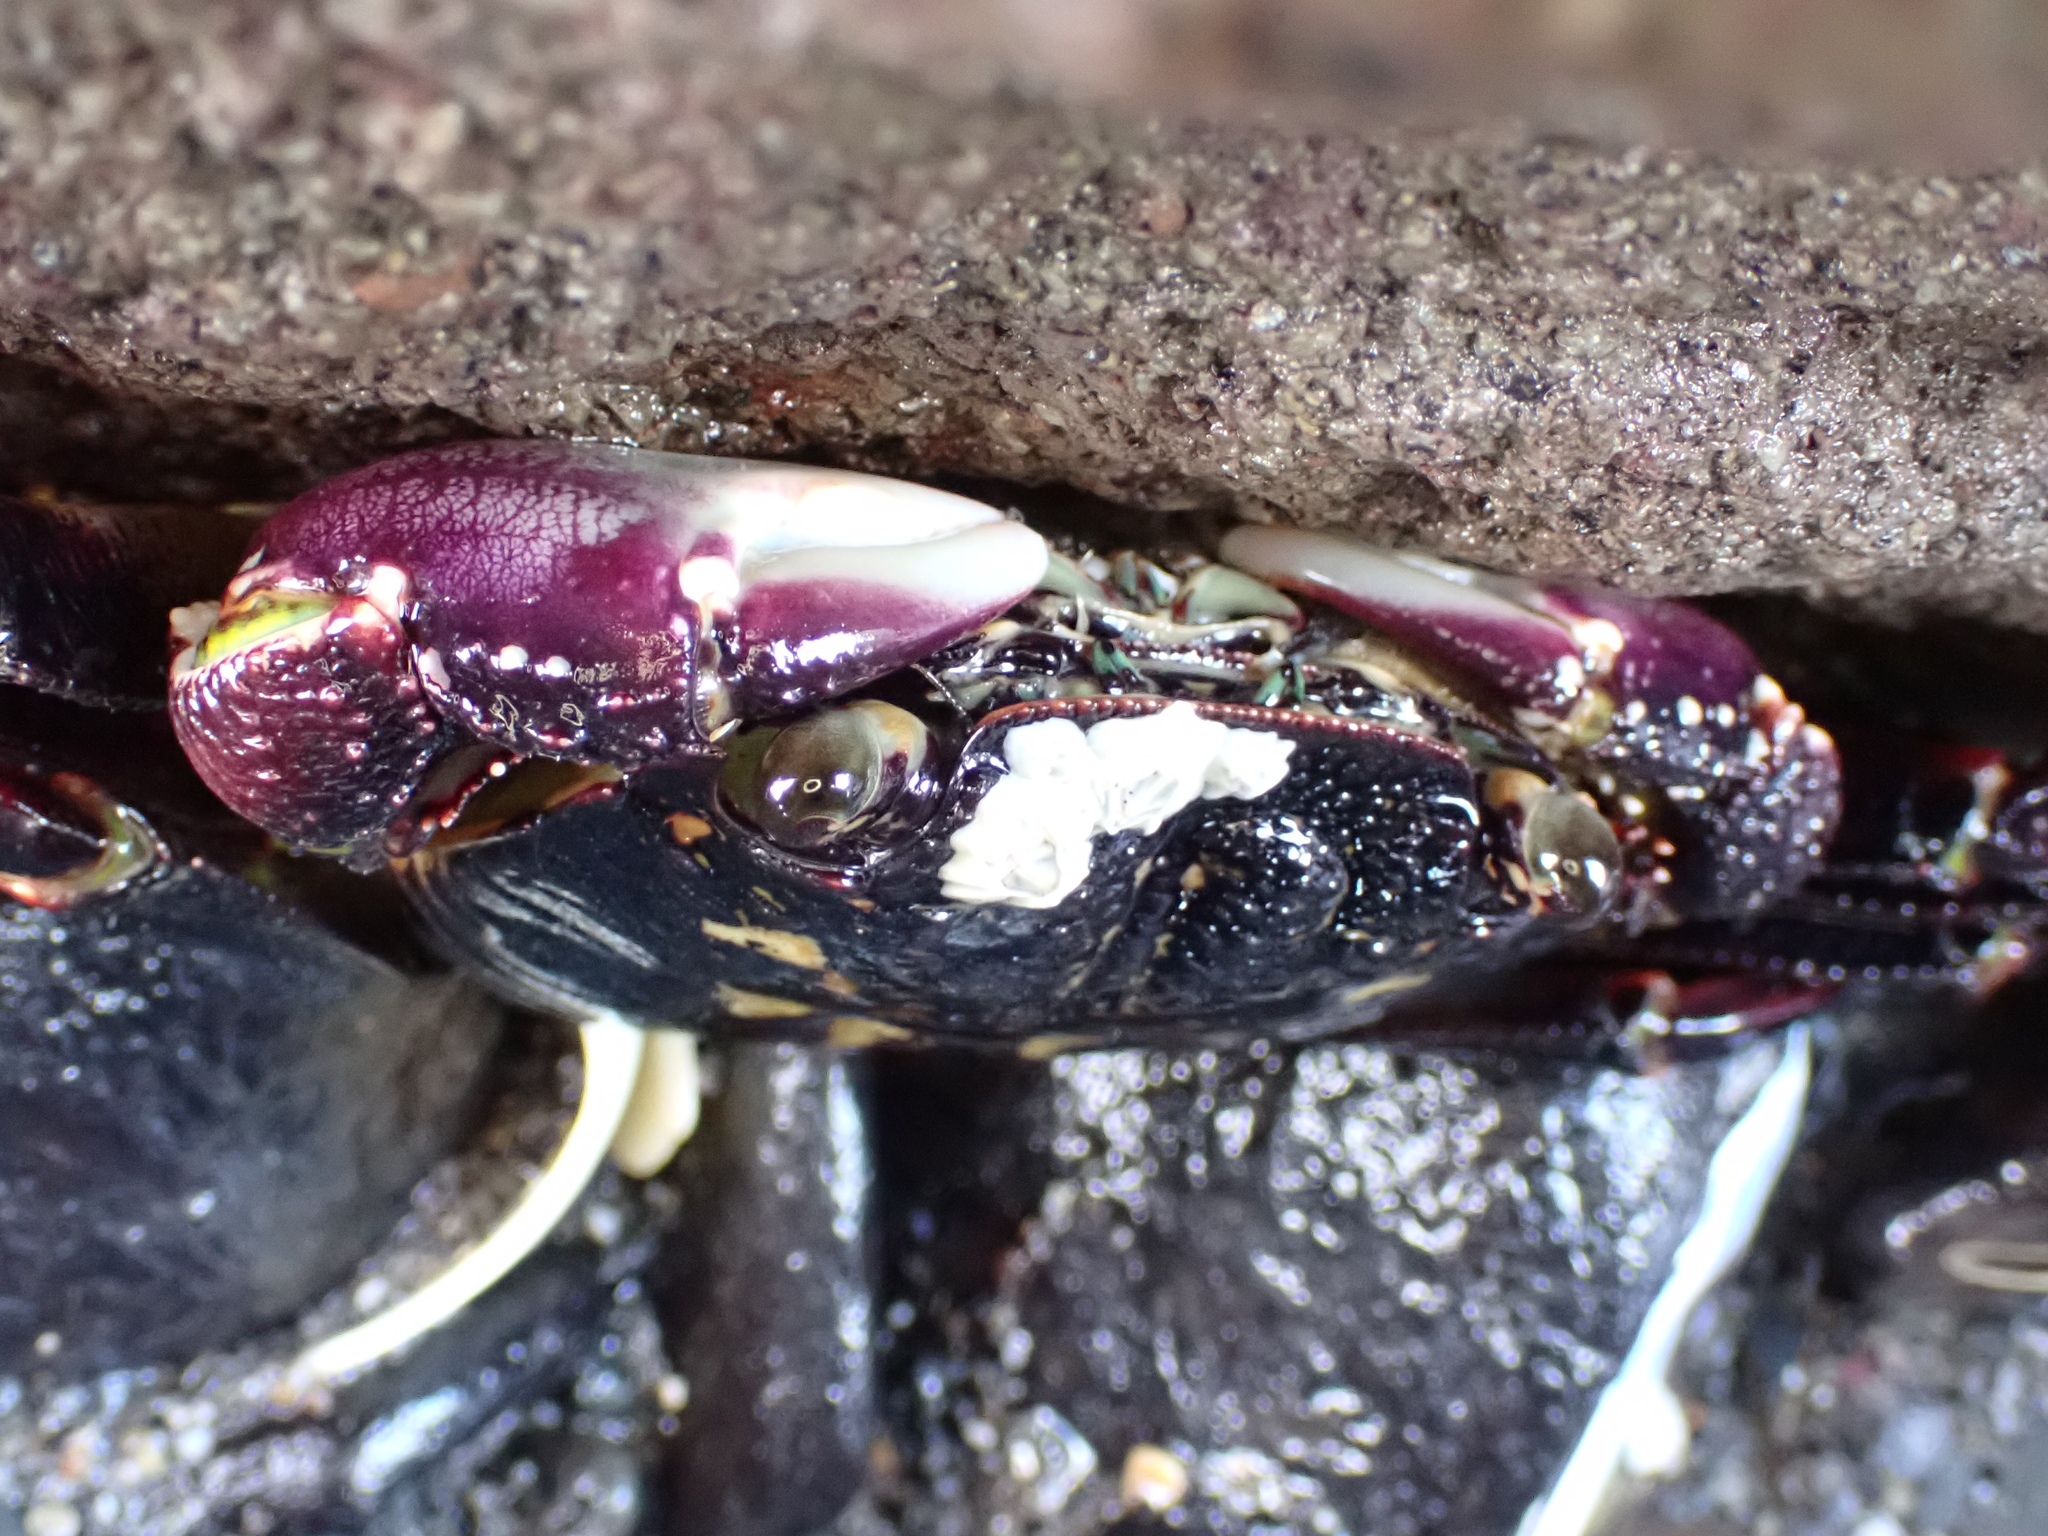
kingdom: Animalia
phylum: Arthropoda
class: Malacostraca
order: Decapoda
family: Grapsidae
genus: Leptograpsus
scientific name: Leptograpsus variegatus
